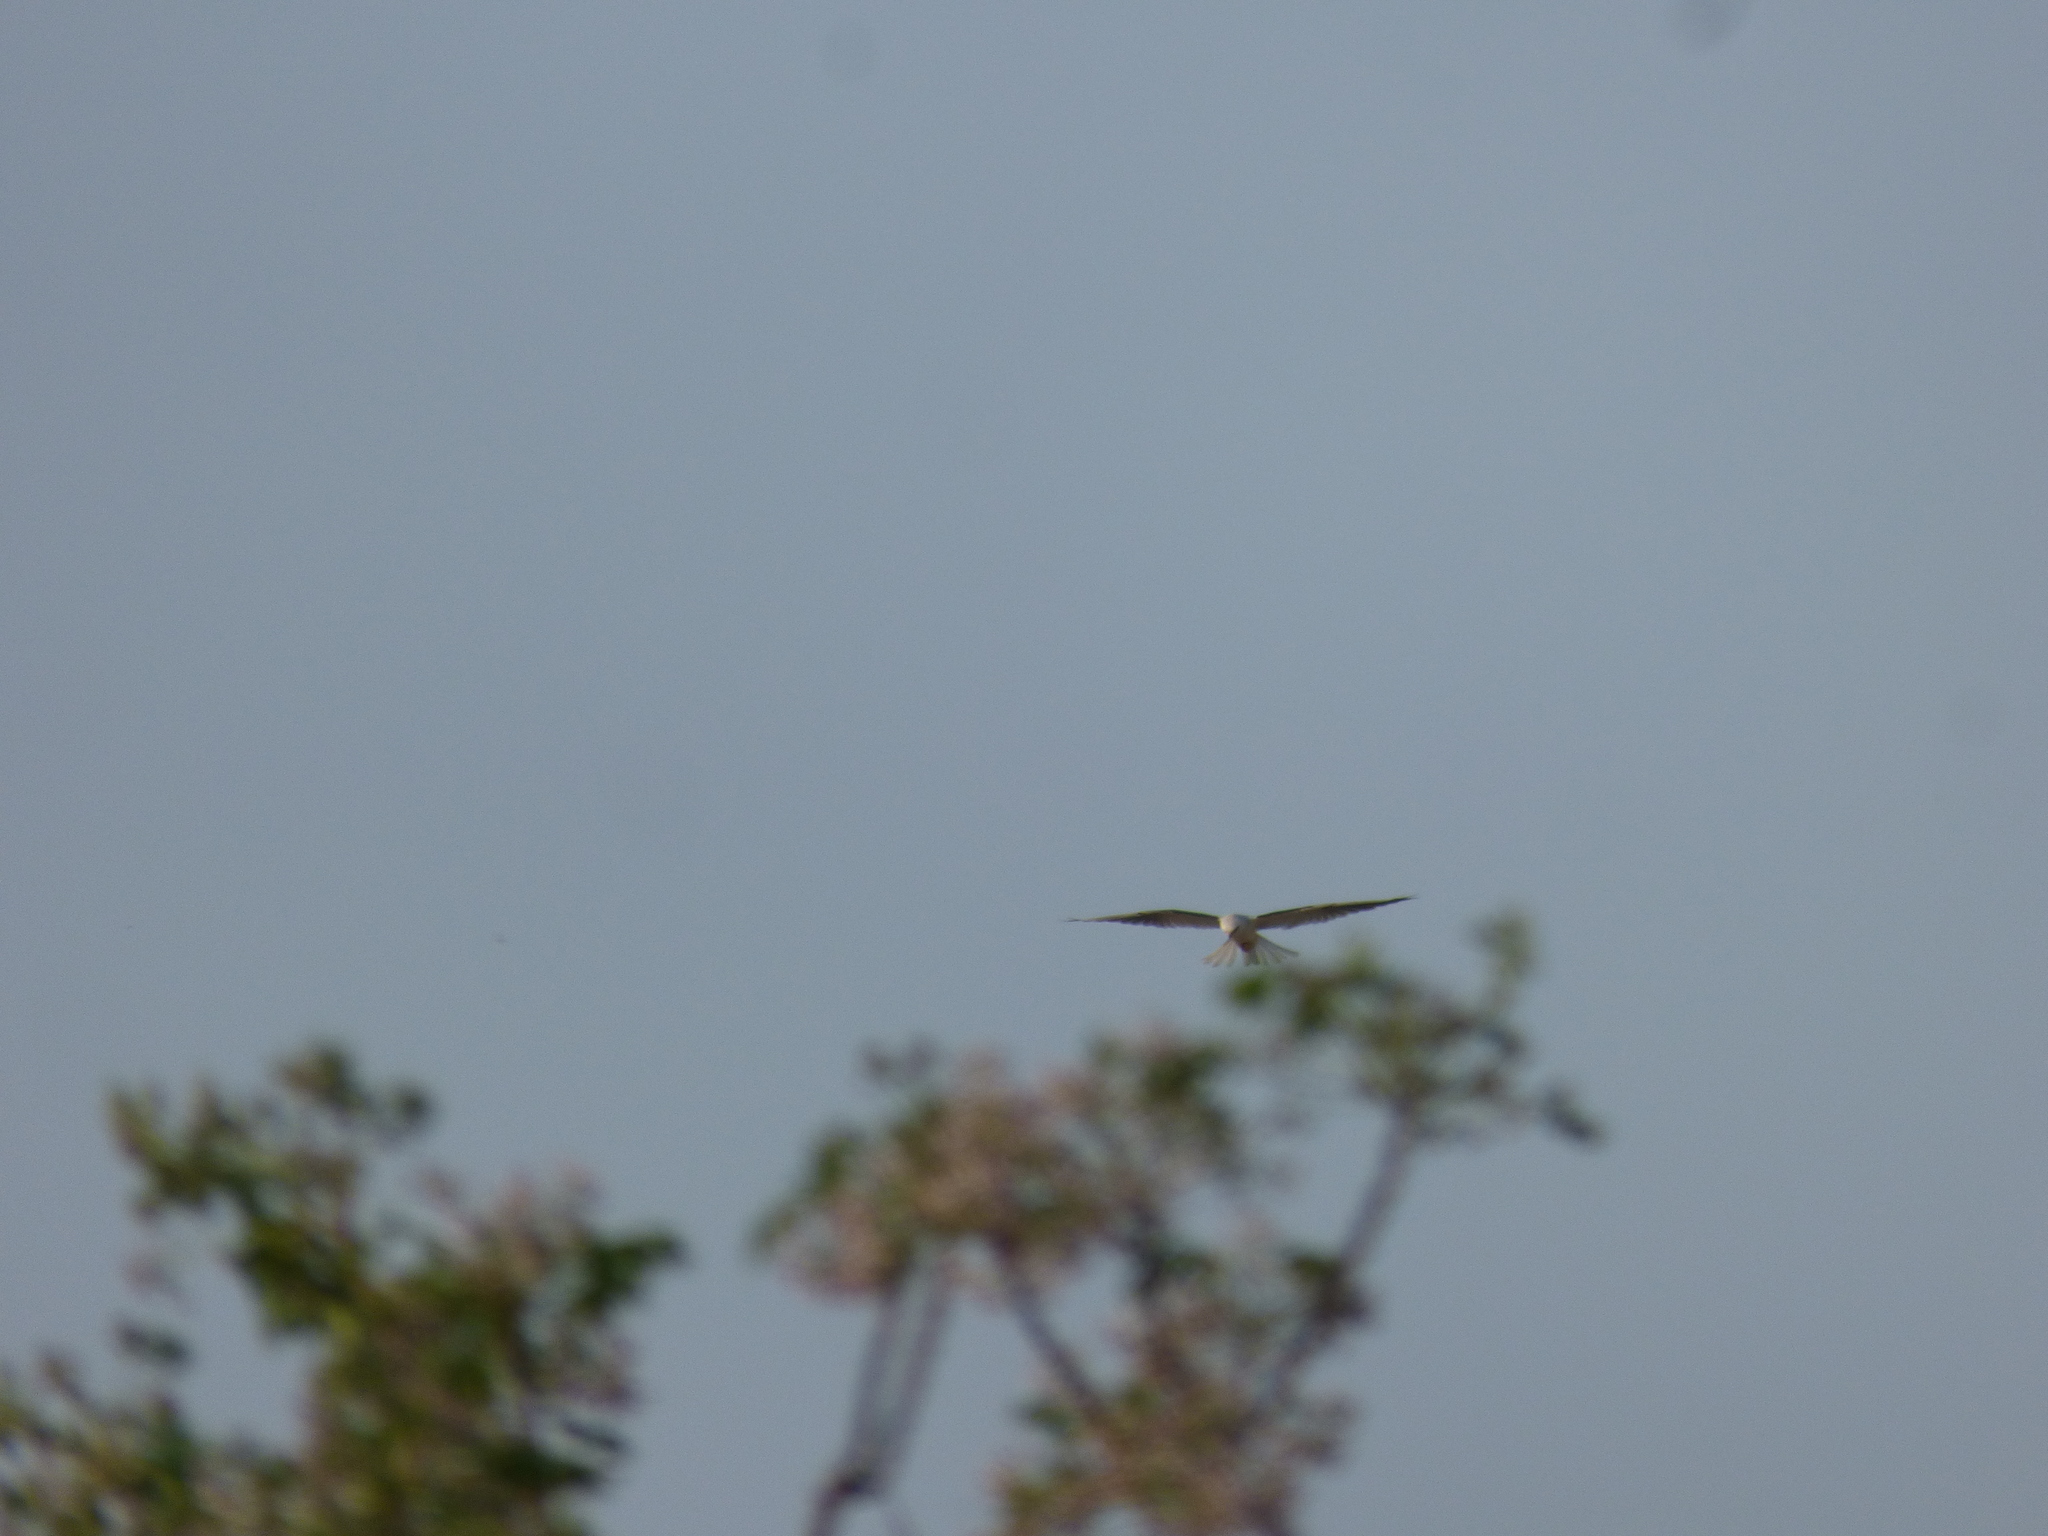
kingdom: Animalia
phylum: Chordata
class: Aves
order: Accipitriformes
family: Accipitridae
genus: Elanus
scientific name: Elanus leucurus
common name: White-tailed kite
